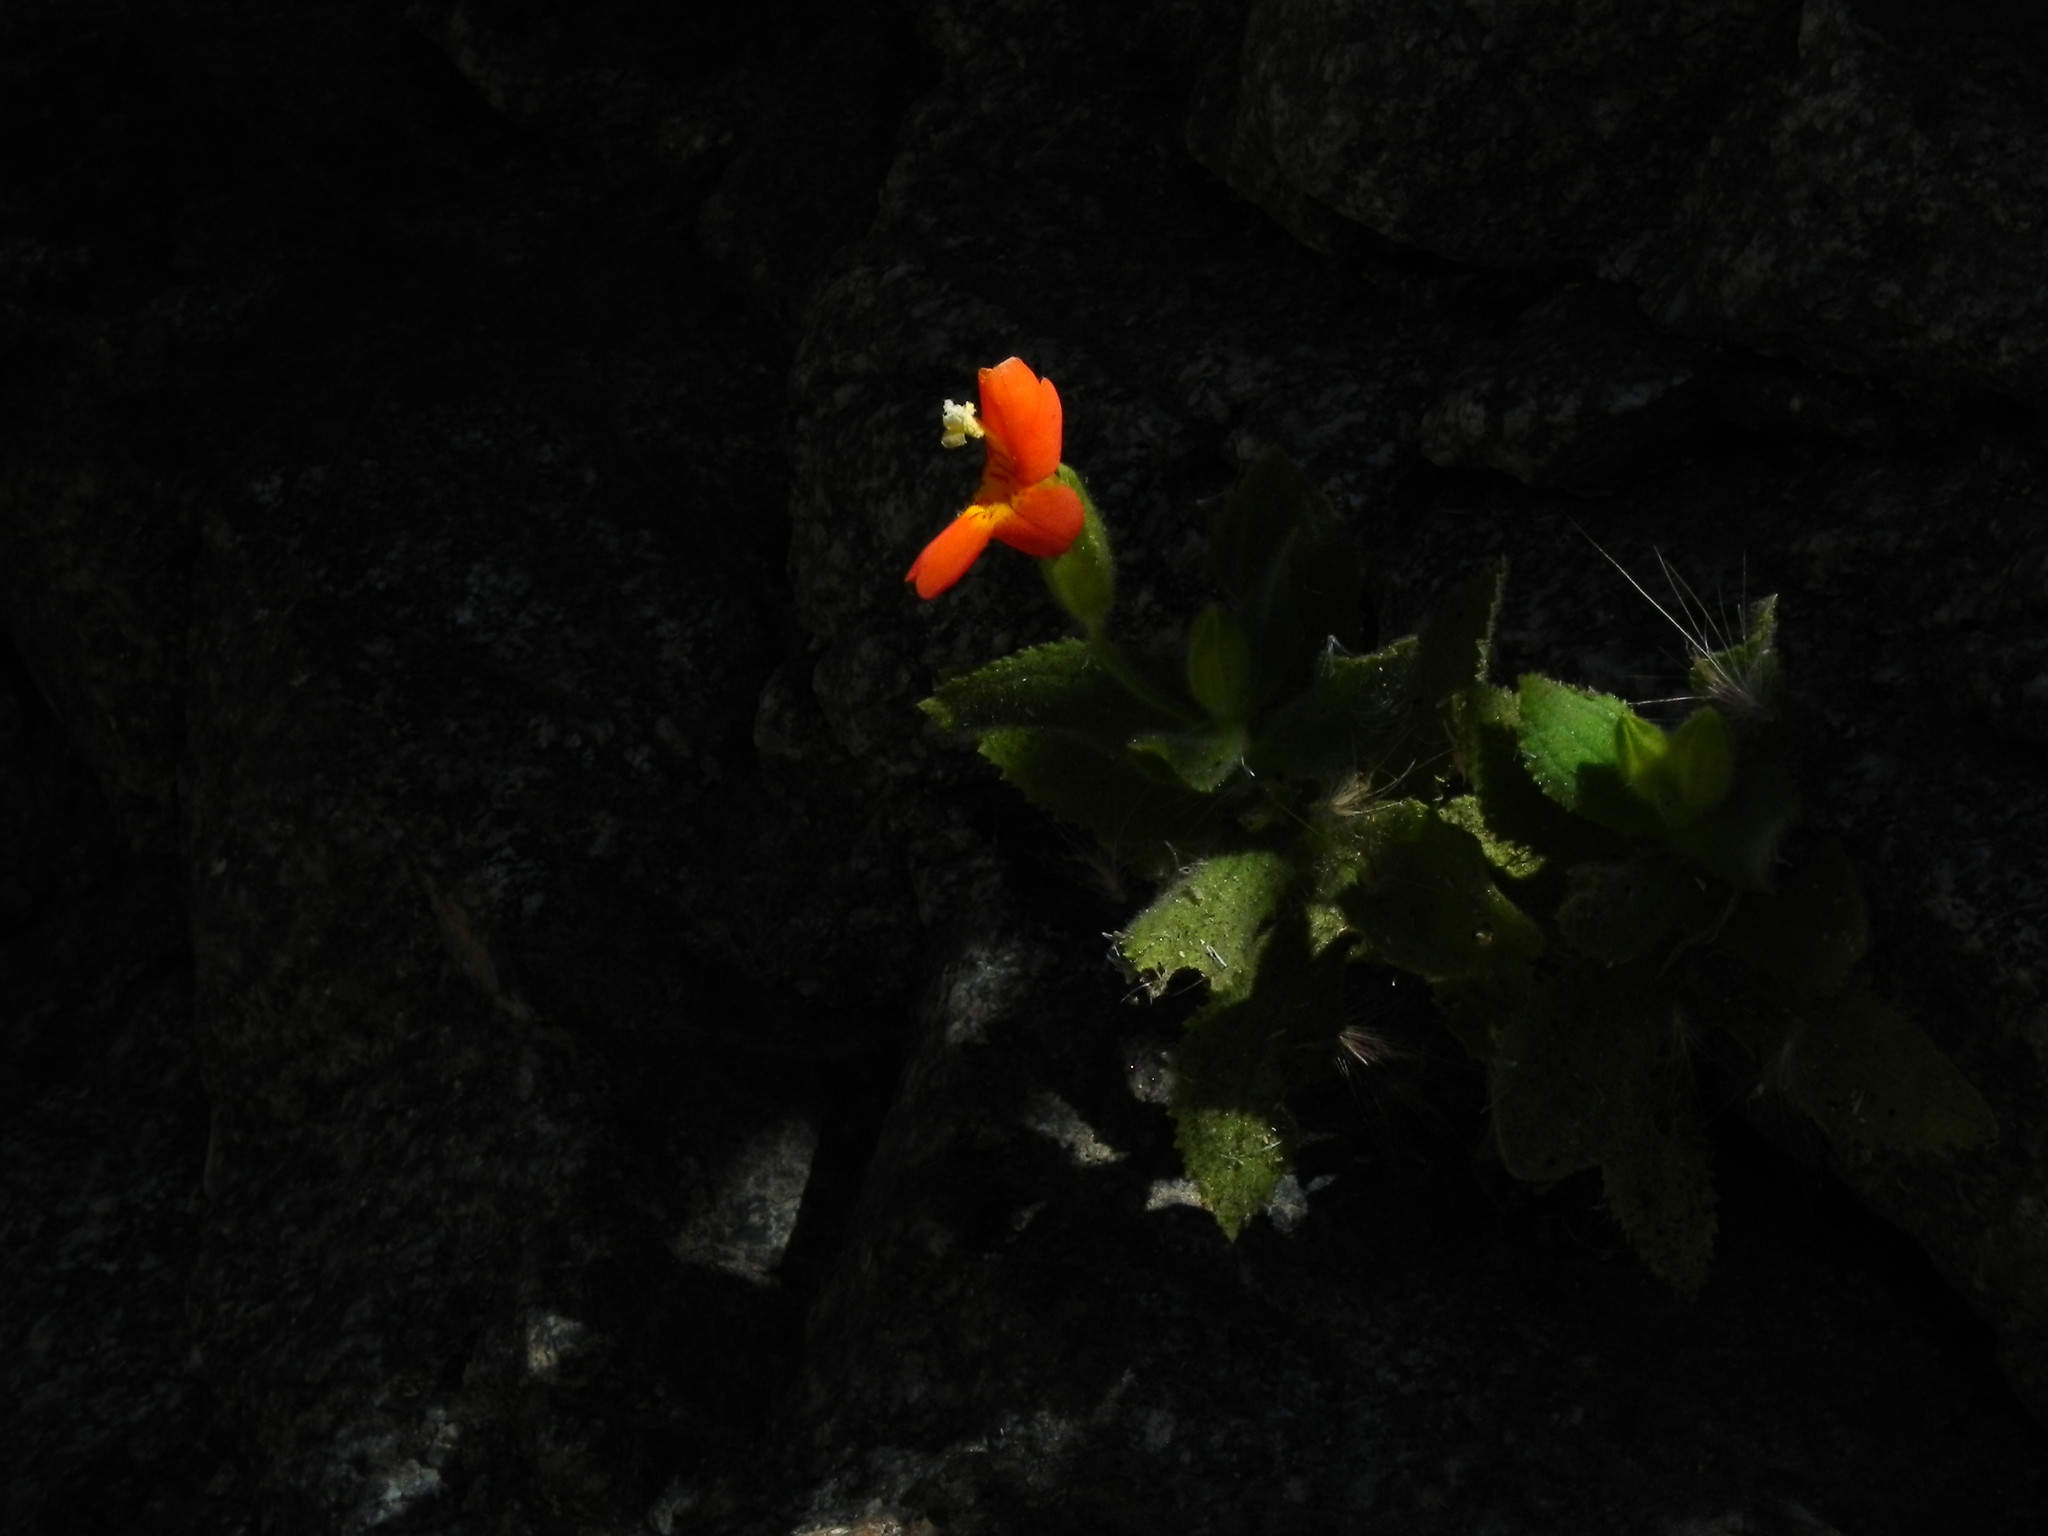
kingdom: Plantae
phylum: Tracheophyta
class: Magnoliopsida
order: Lamiales
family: Phrymaceae
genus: Erythranthe
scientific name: Erythranthe cardinalis
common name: Scarlet monkey-flower
